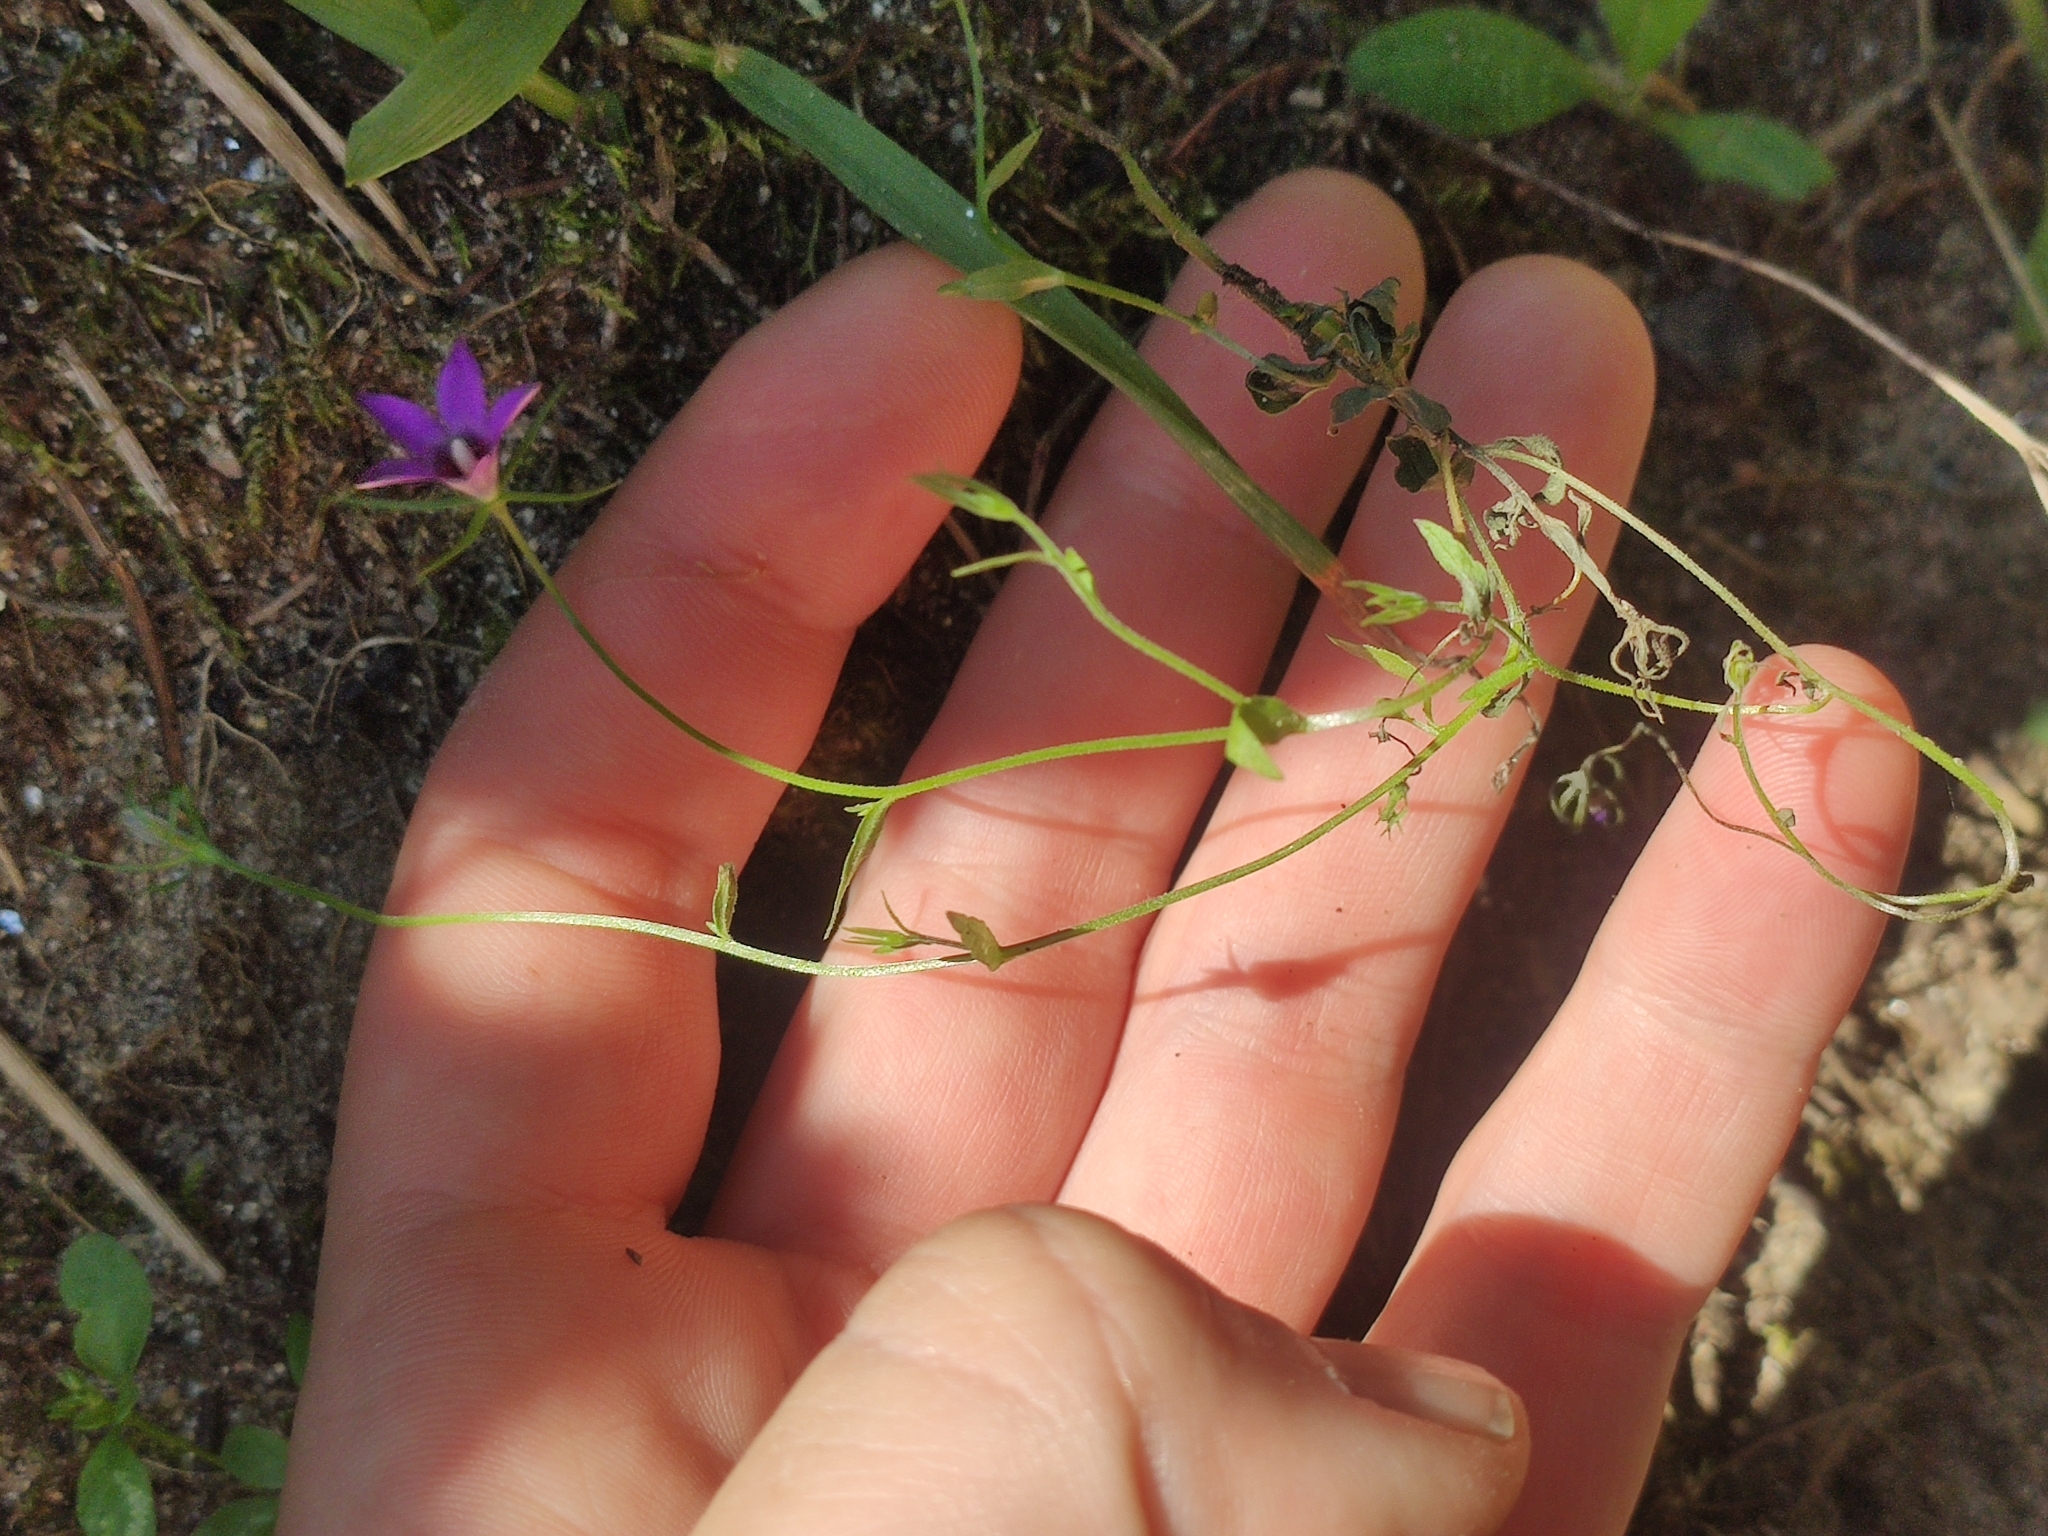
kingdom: Plantae
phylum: Tracheophyta
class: Magnoliopsida
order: Asterales
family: Campanulaceae
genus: Campanula
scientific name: Campanula lusitanica
